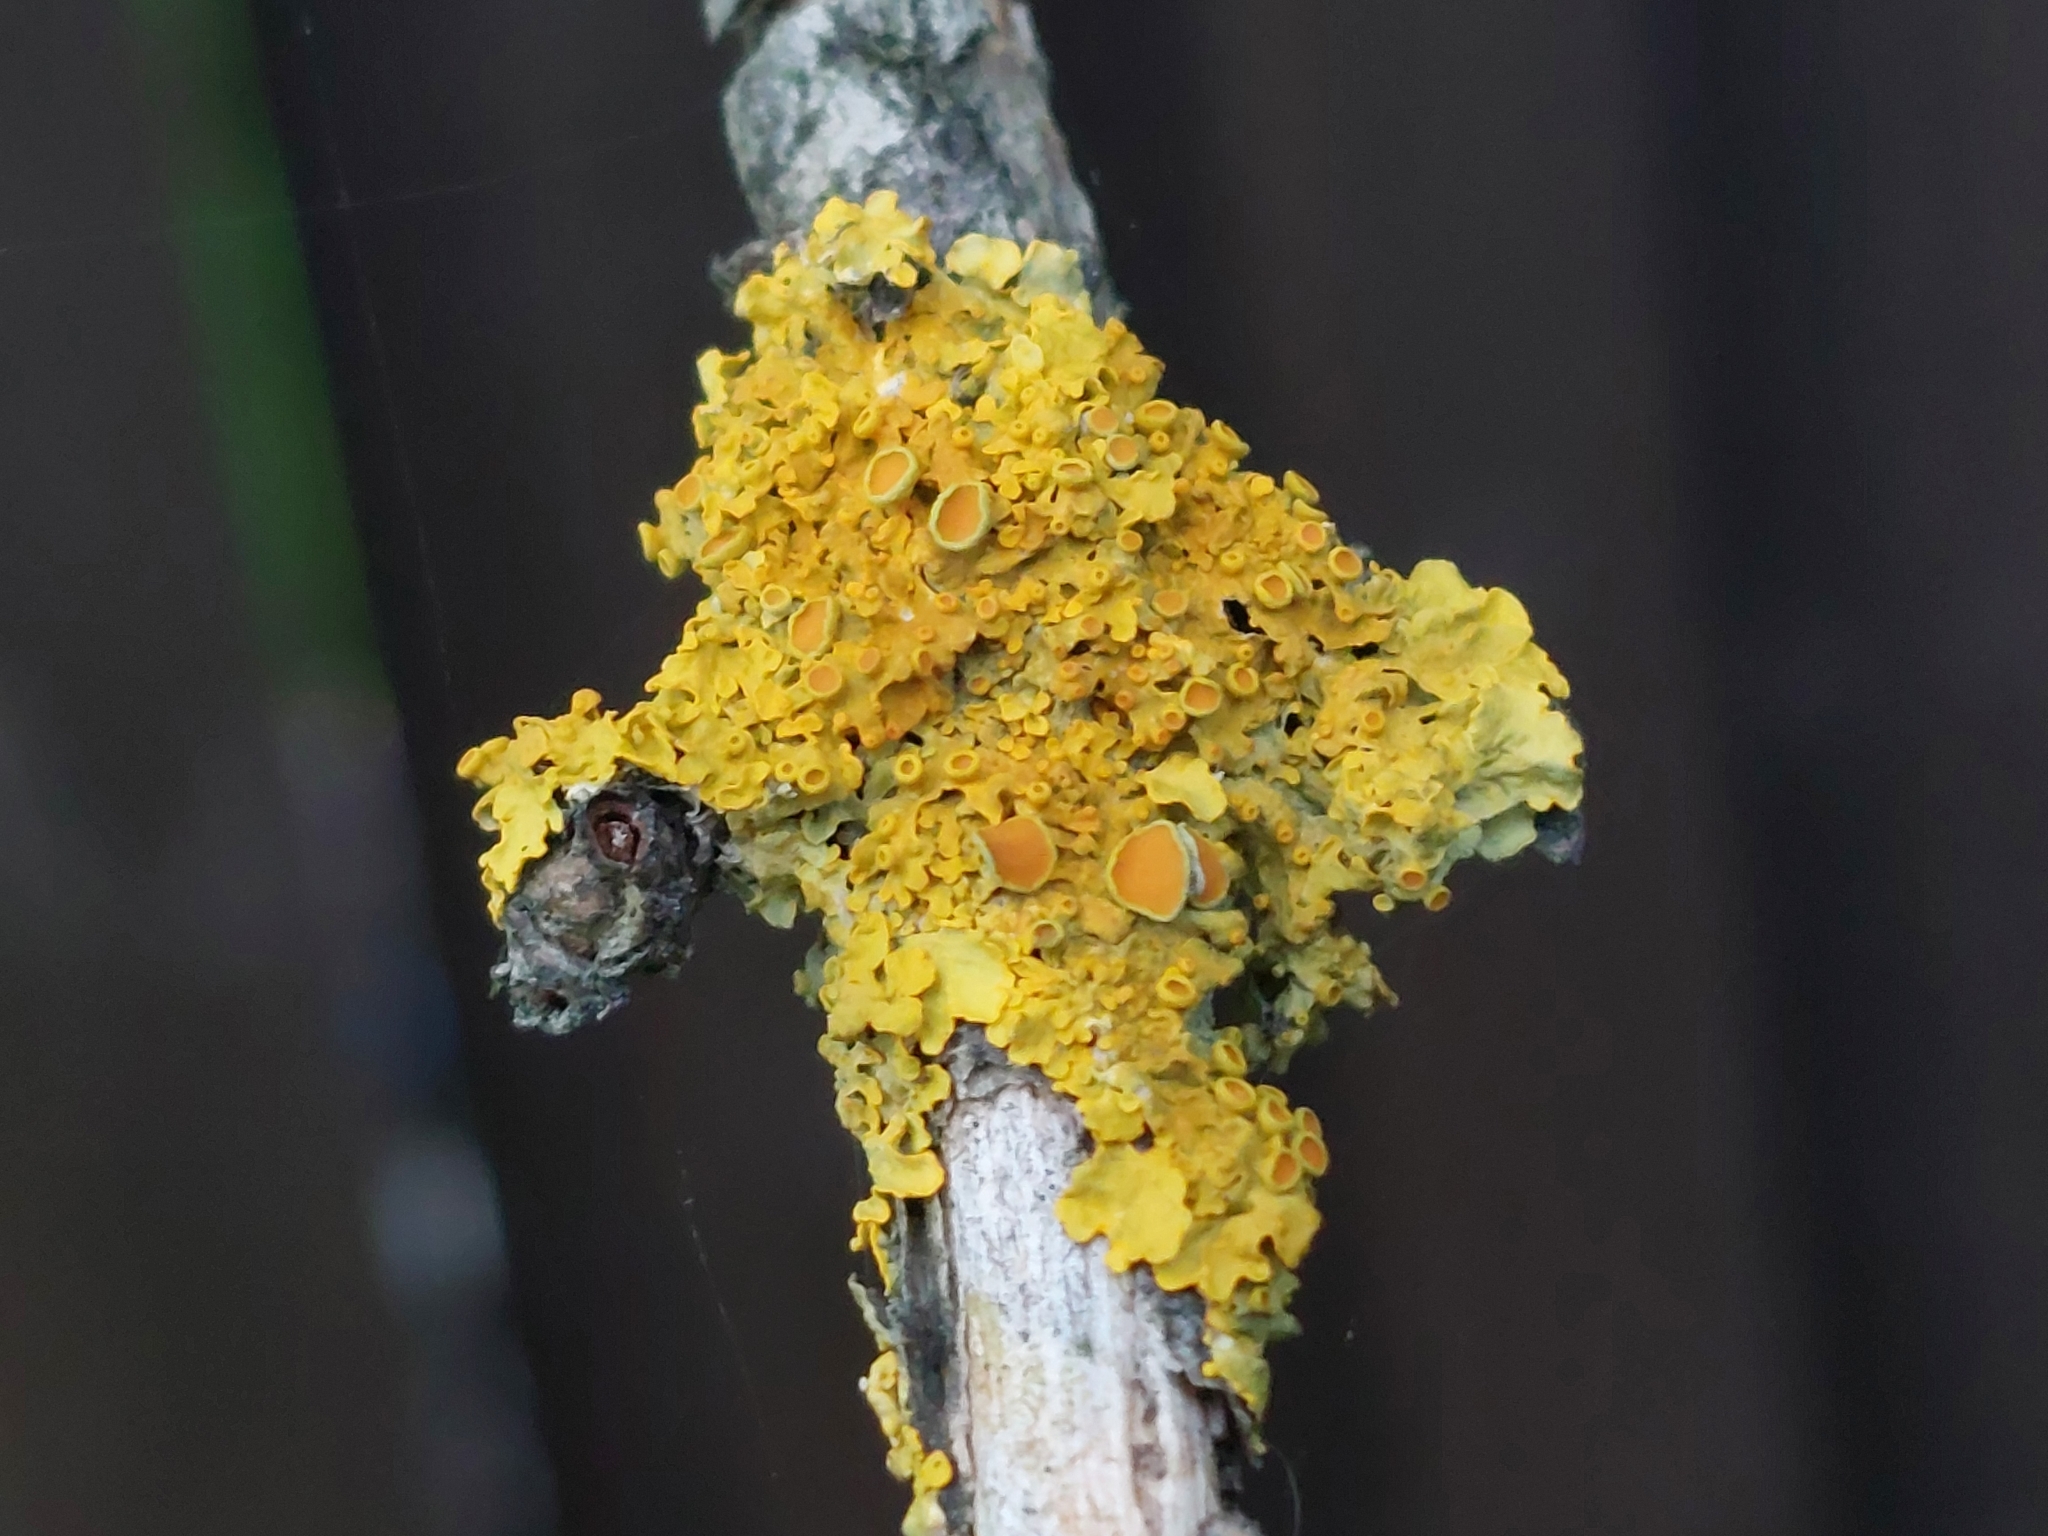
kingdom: Fungi
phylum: Ascomycota
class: Lecanoromycetes
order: Teloschistales
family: Teloschistaceae
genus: Xanthoria
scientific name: Xanthoria parietina
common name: Common orange lichen
